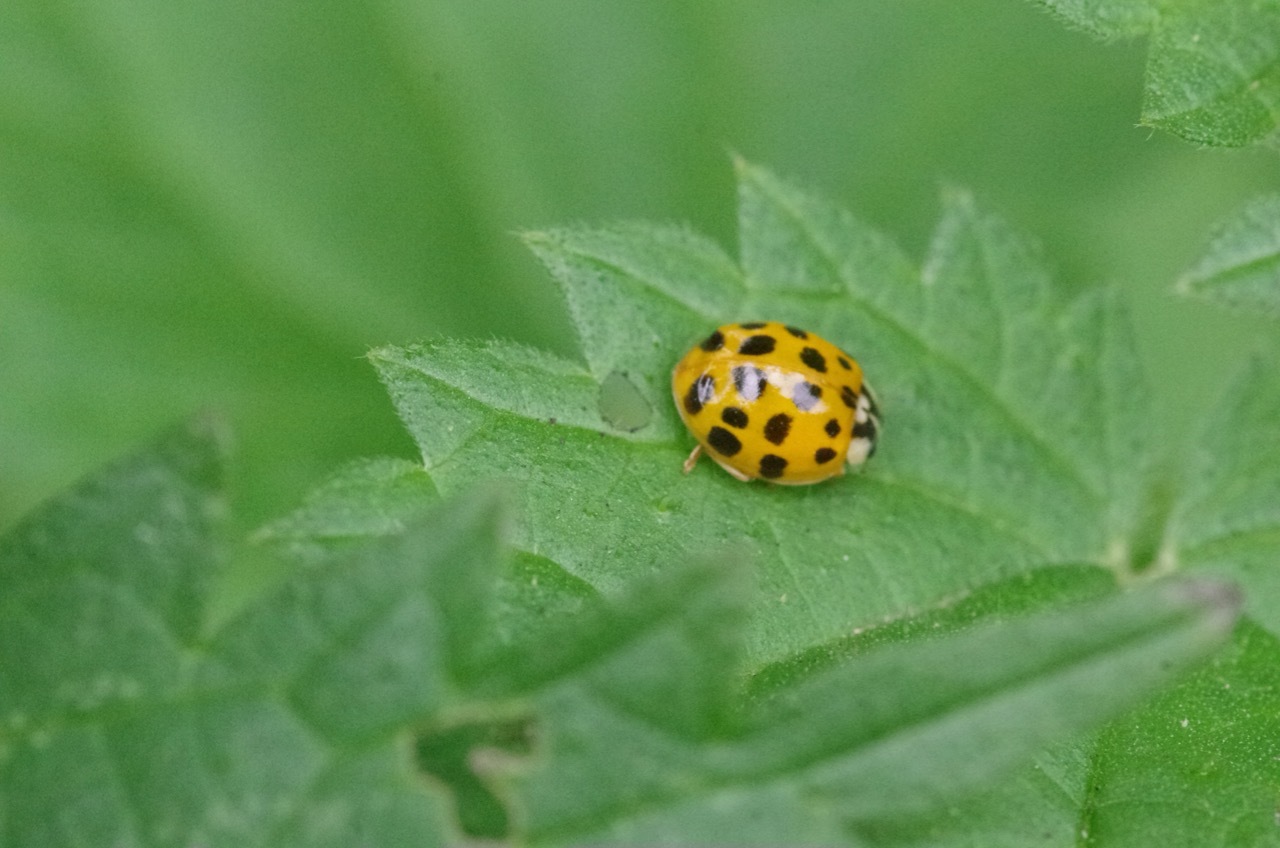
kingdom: Animalia
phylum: Arthropoda
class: Insecta
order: Coleoptera
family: Coccinellidae
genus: Harmonia
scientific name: Harmonia axyridis
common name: Harlequin ladybird
